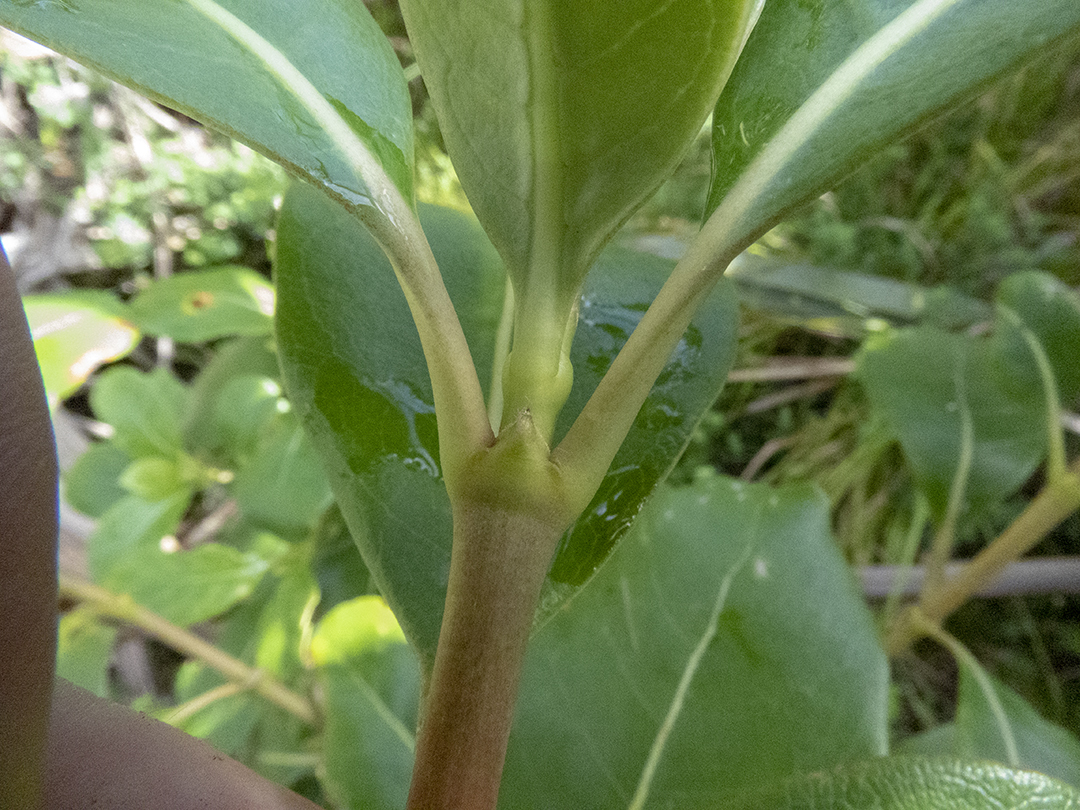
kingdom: Plantae
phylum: Tracheophyta
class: Magnoliopsida
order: Gentianales
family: Rubiaceae
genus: Coprosma
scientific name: Coprosma lucida
